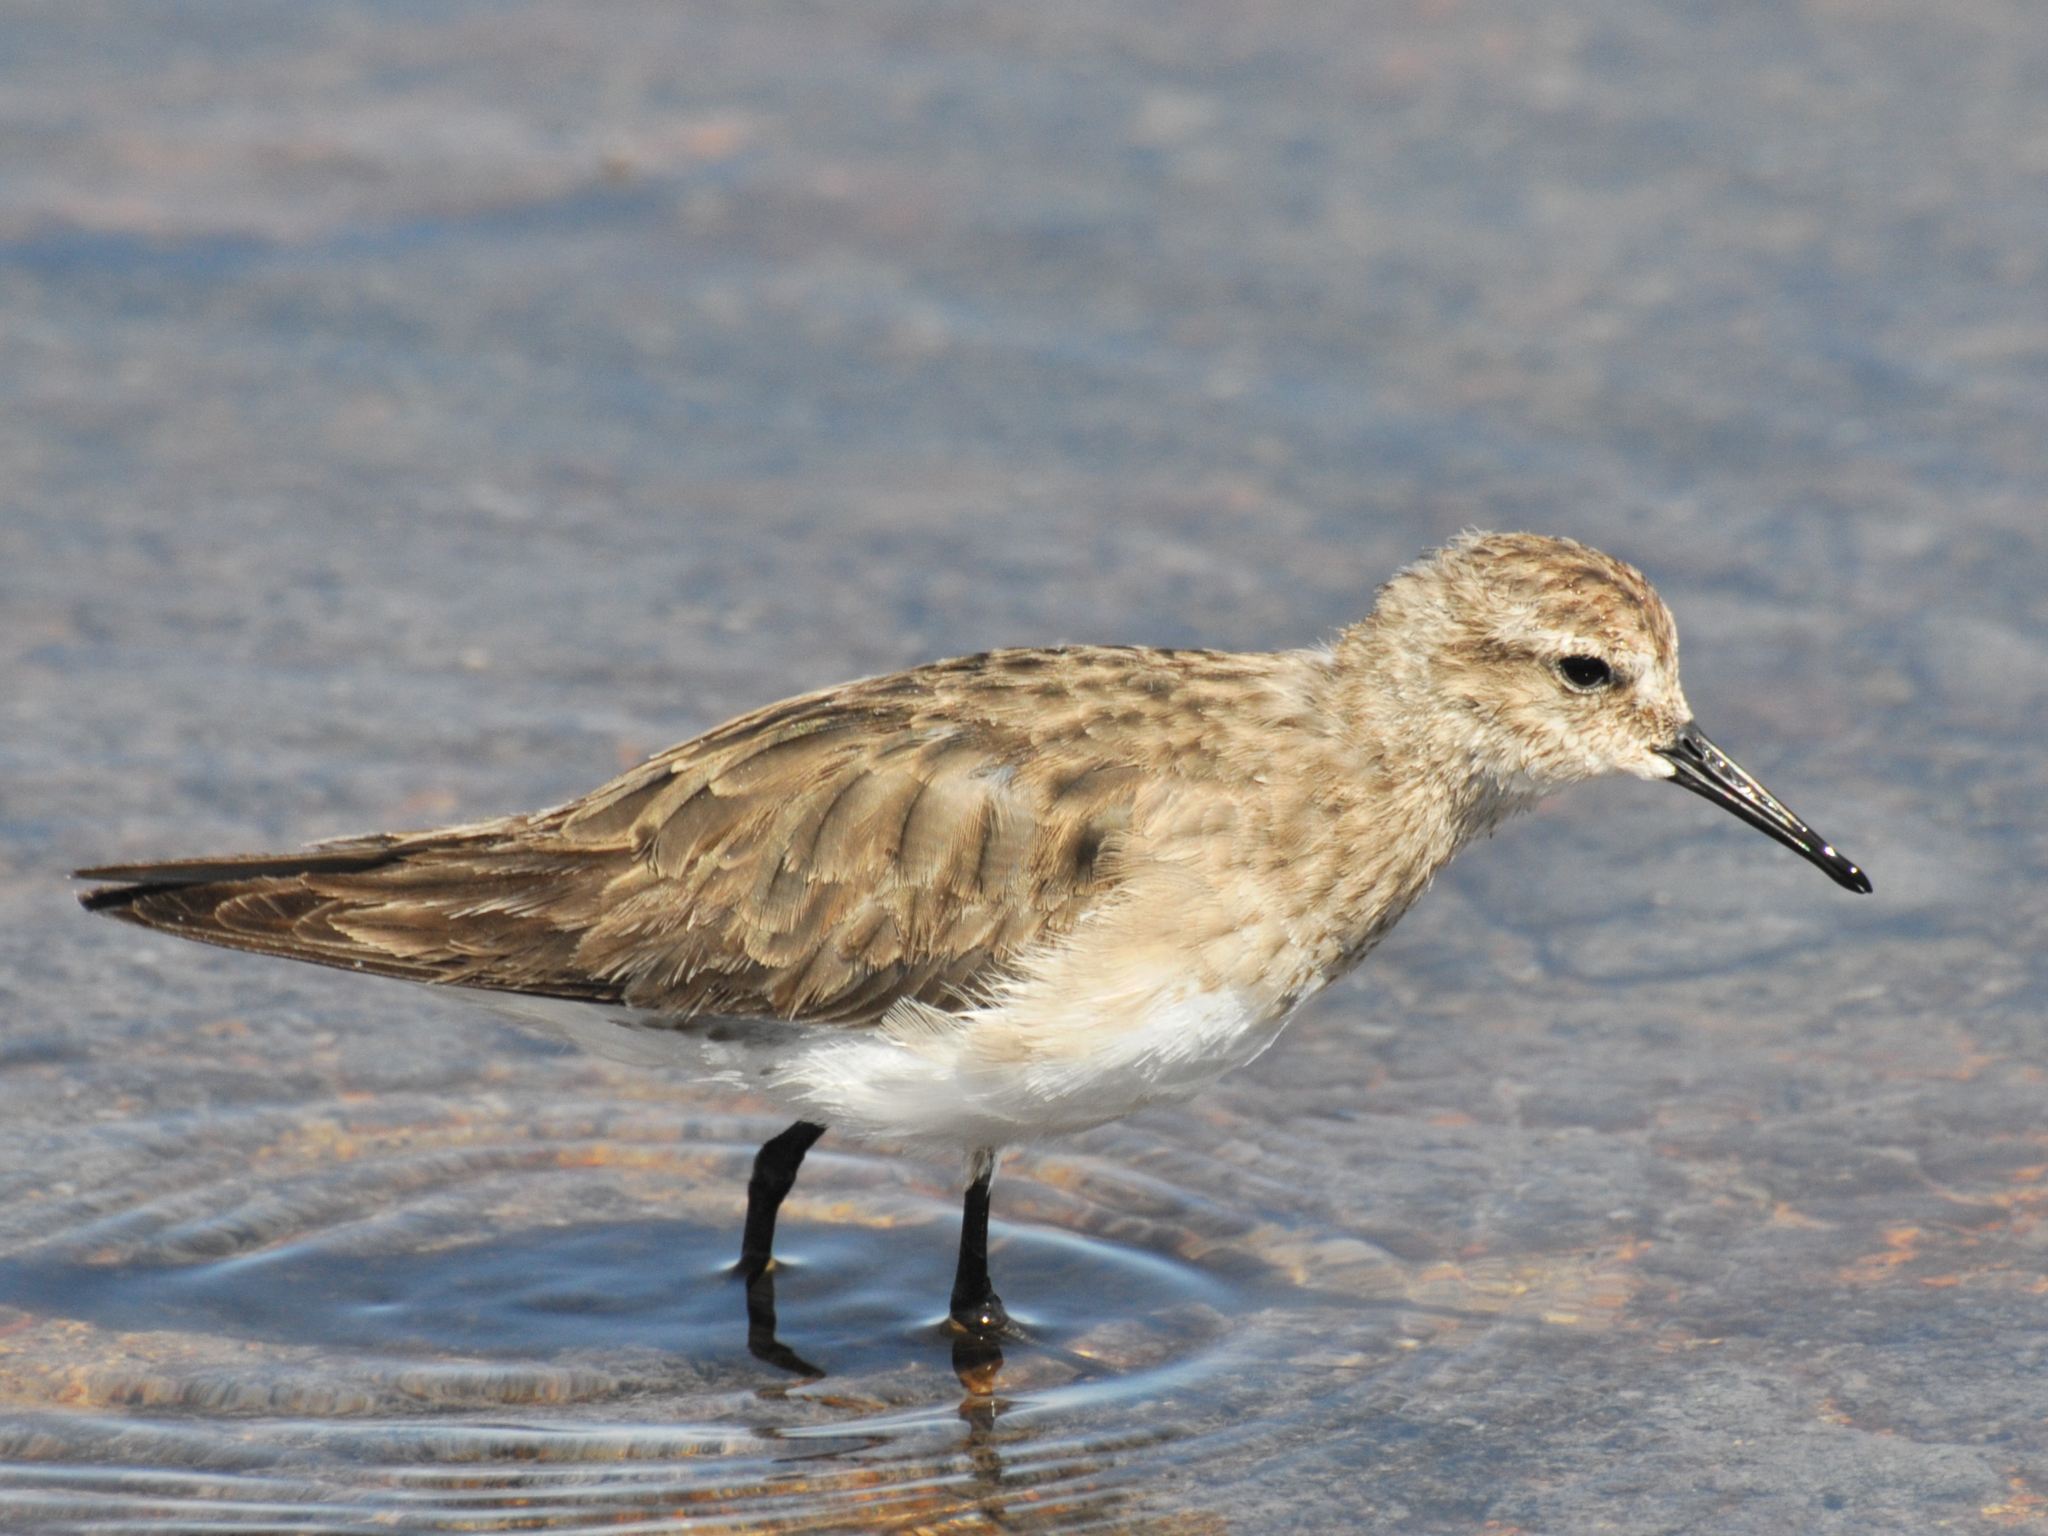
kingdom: Animalia
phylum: Chordata
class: Aves
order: Charadriiformes
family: Scolopacidae
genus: Calidris
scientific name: Calidris bairdii
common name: Baird's sandpiper
